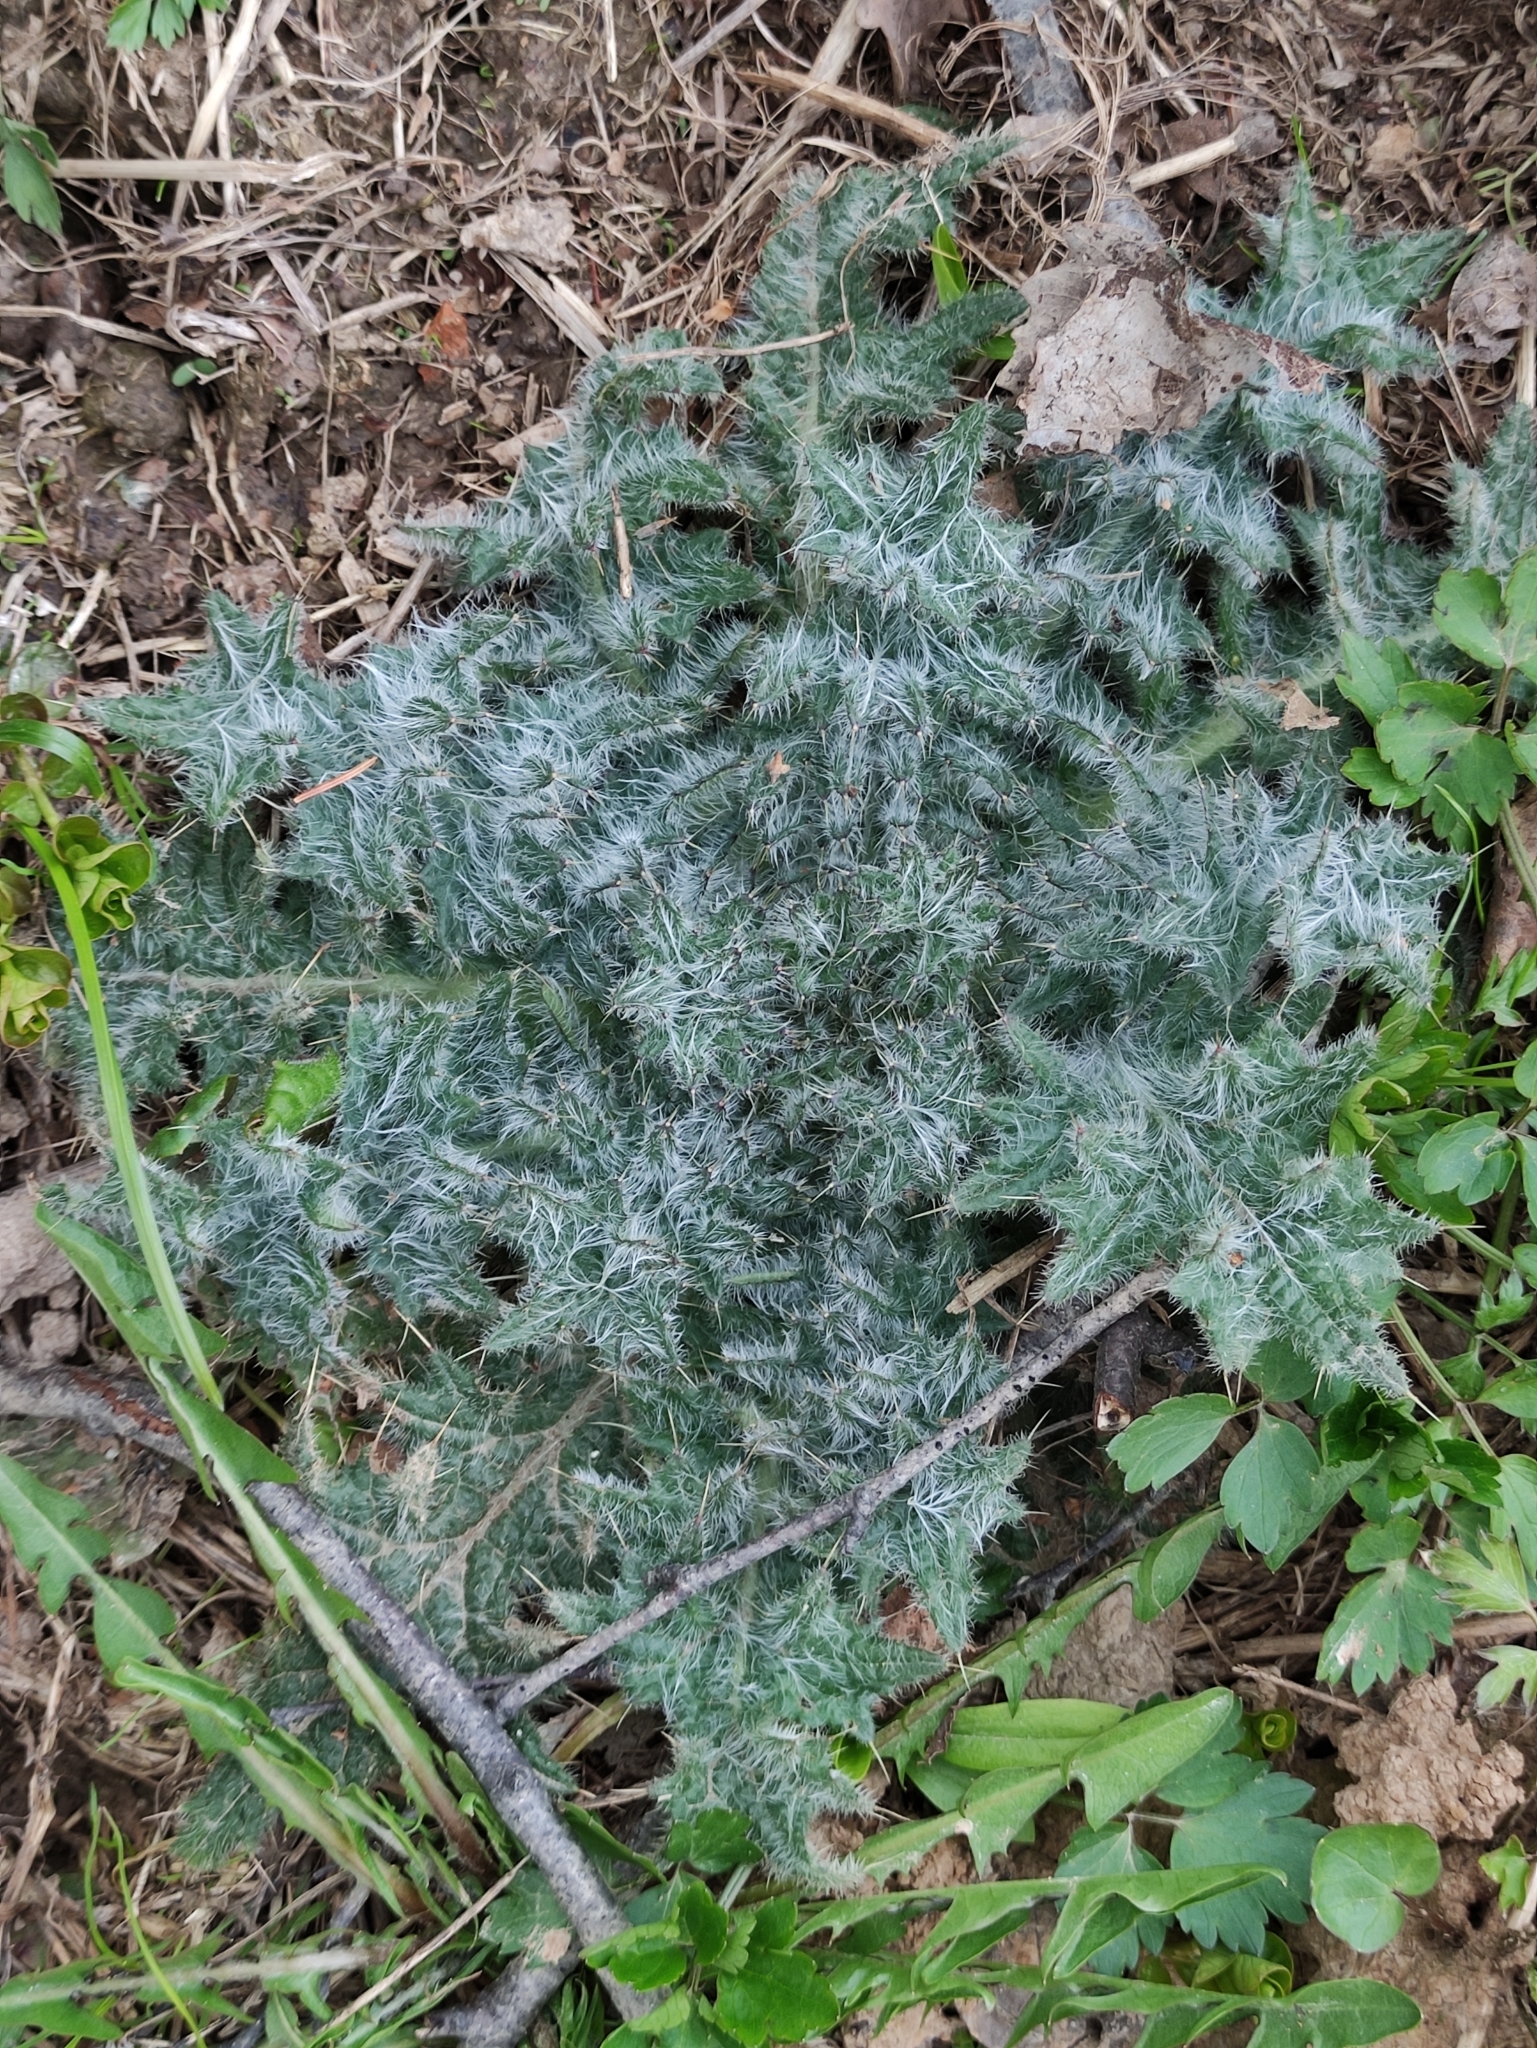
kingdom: Plantae
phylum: Tracheophyta
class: Magnoliopsida
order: Asterales
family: Asteraceae
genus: Cirsium
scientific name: Cirsium vulgare
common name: Bull thistle
